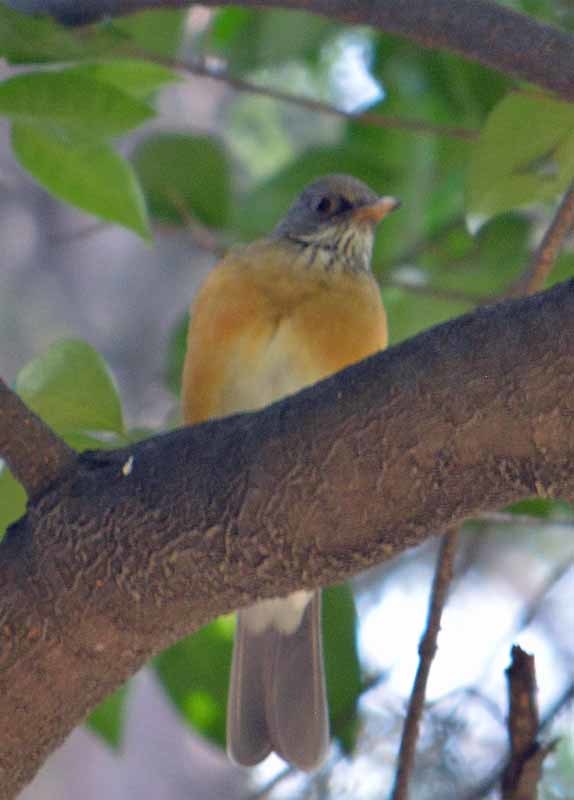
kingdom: Animalia
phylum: Chordata
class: Aves
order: Passeriformes
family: Turdidae
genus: Turdus
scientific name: Turdus rufopalliatus
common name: Rufous-backed robin
